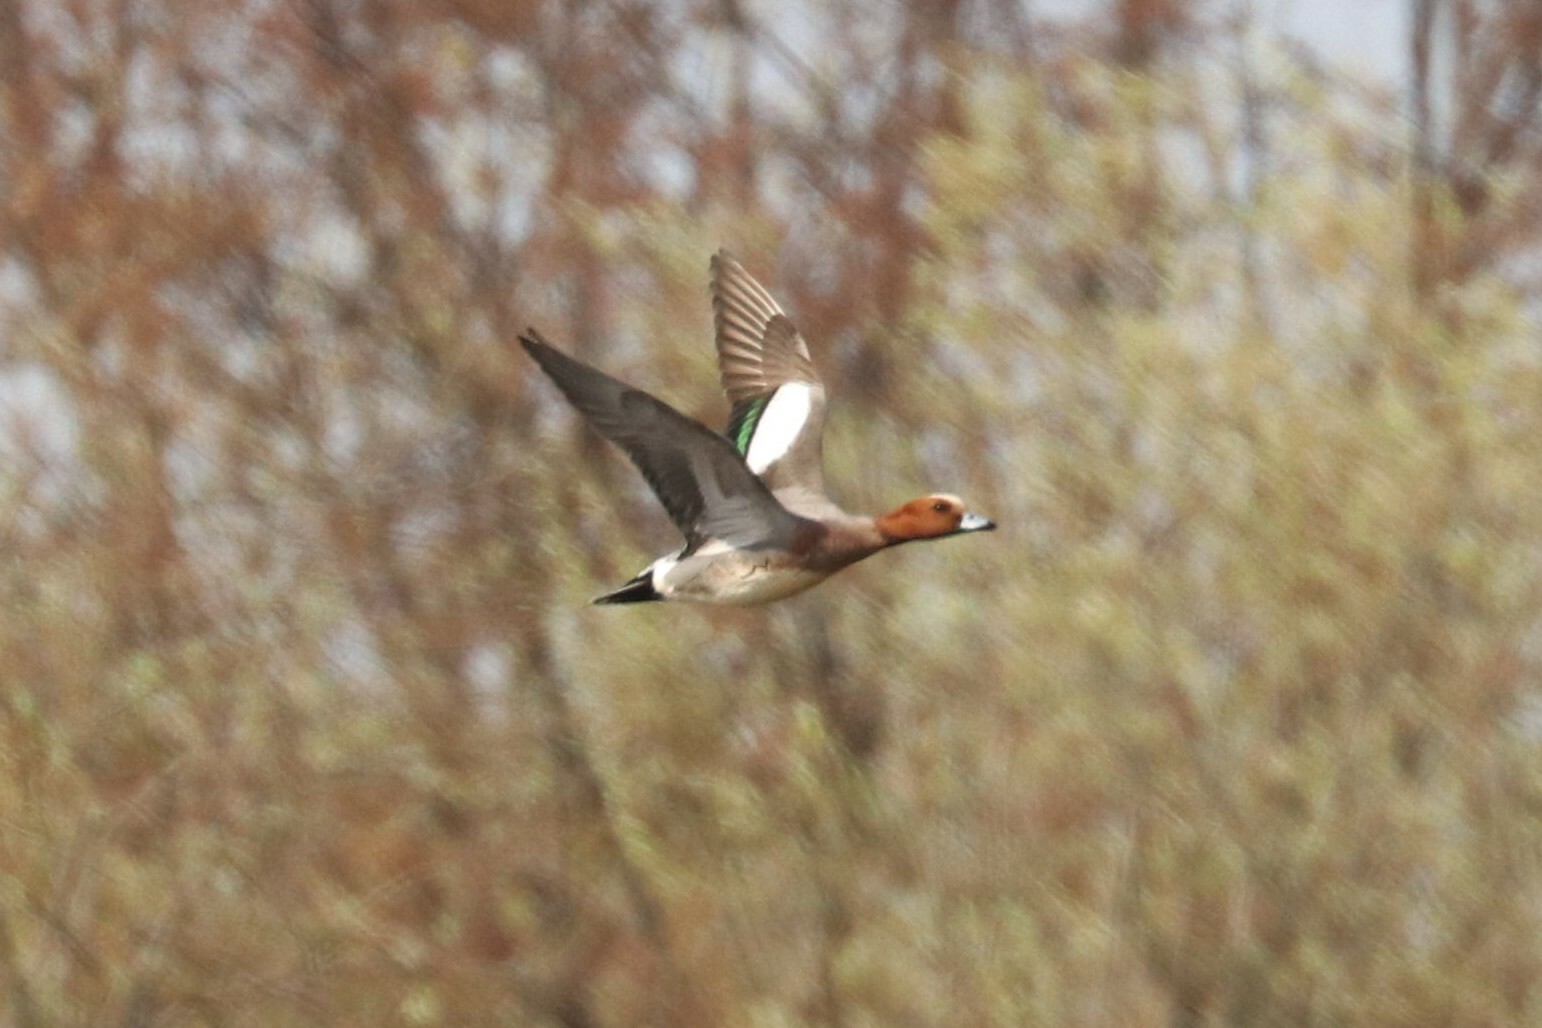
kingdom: Animalia
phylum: Chordata
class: Aves
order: Anseriformes
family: Anatidae
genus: Mareca
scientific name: Mareca penelope
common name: Eurasian wigeon
